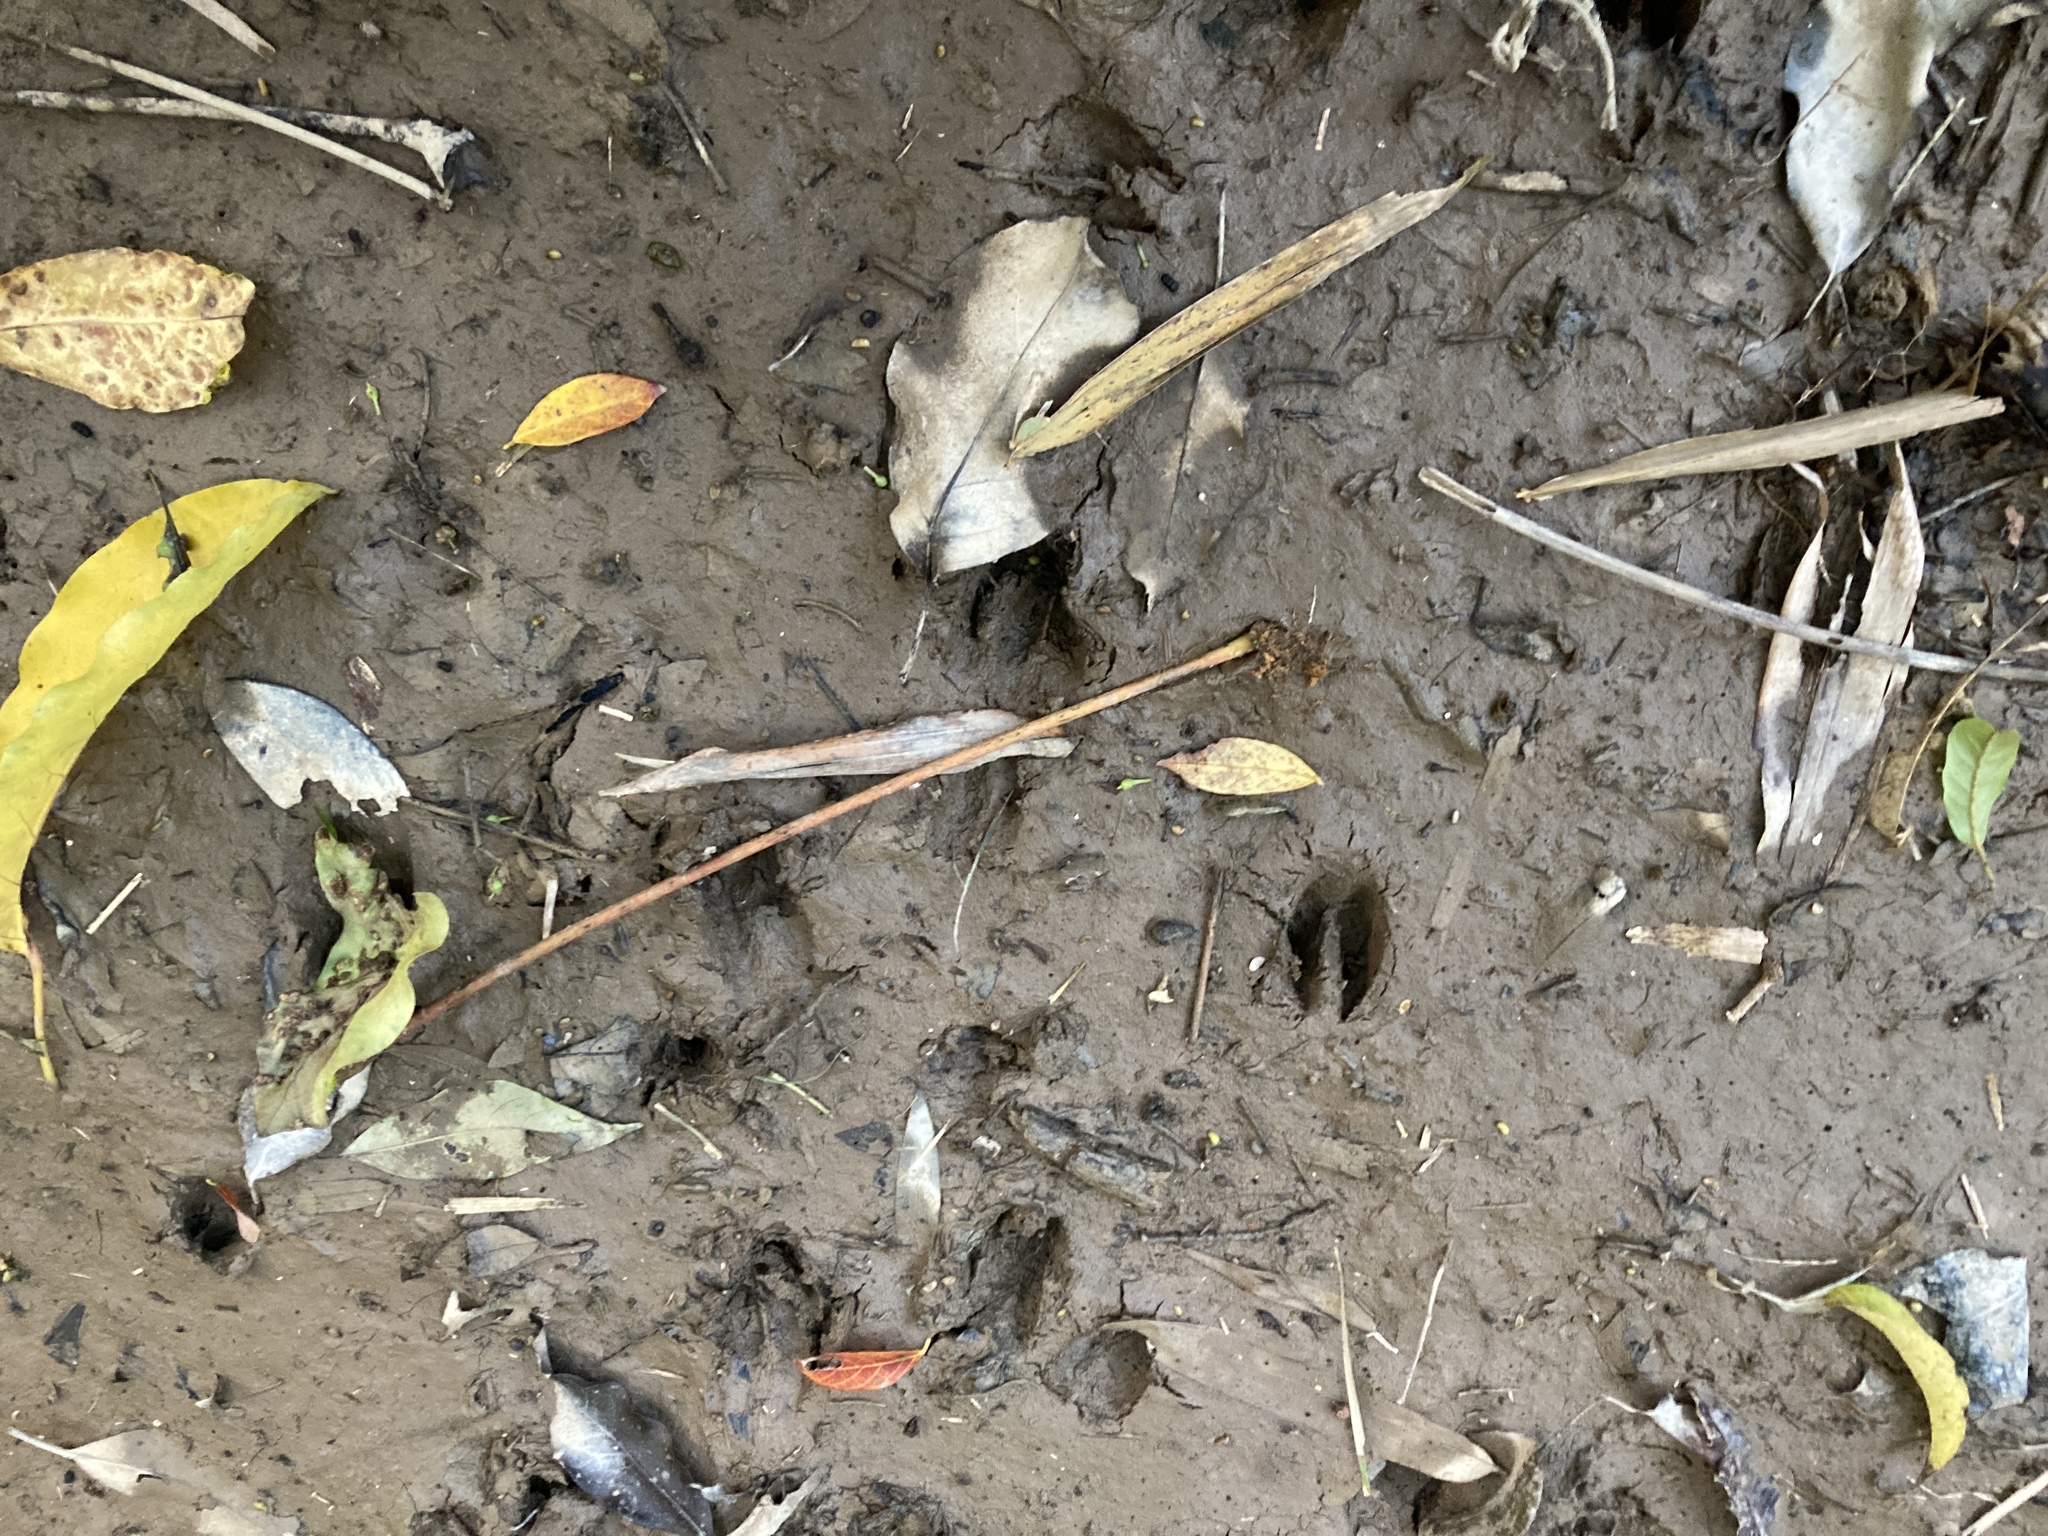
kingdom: Animalia
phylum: Chordata
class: Mammalia
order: Artiodactyla
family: Cervidae
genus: Muntiacus
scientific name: Muntiacus reevesi
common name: Reeves' muntjac
